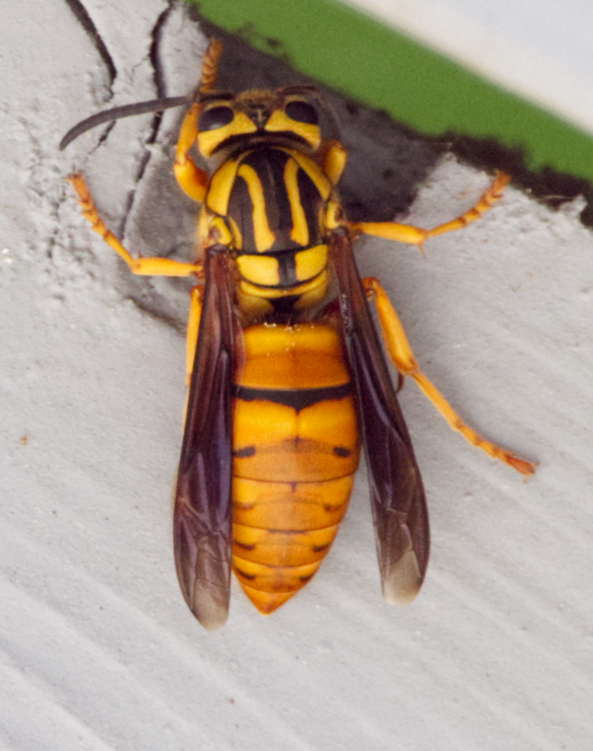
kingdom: Animalia
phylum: Arthropoda
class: Insecta
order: Hymenoptera
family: Vespidae
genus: Vespula
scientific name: Vespula squamosa
